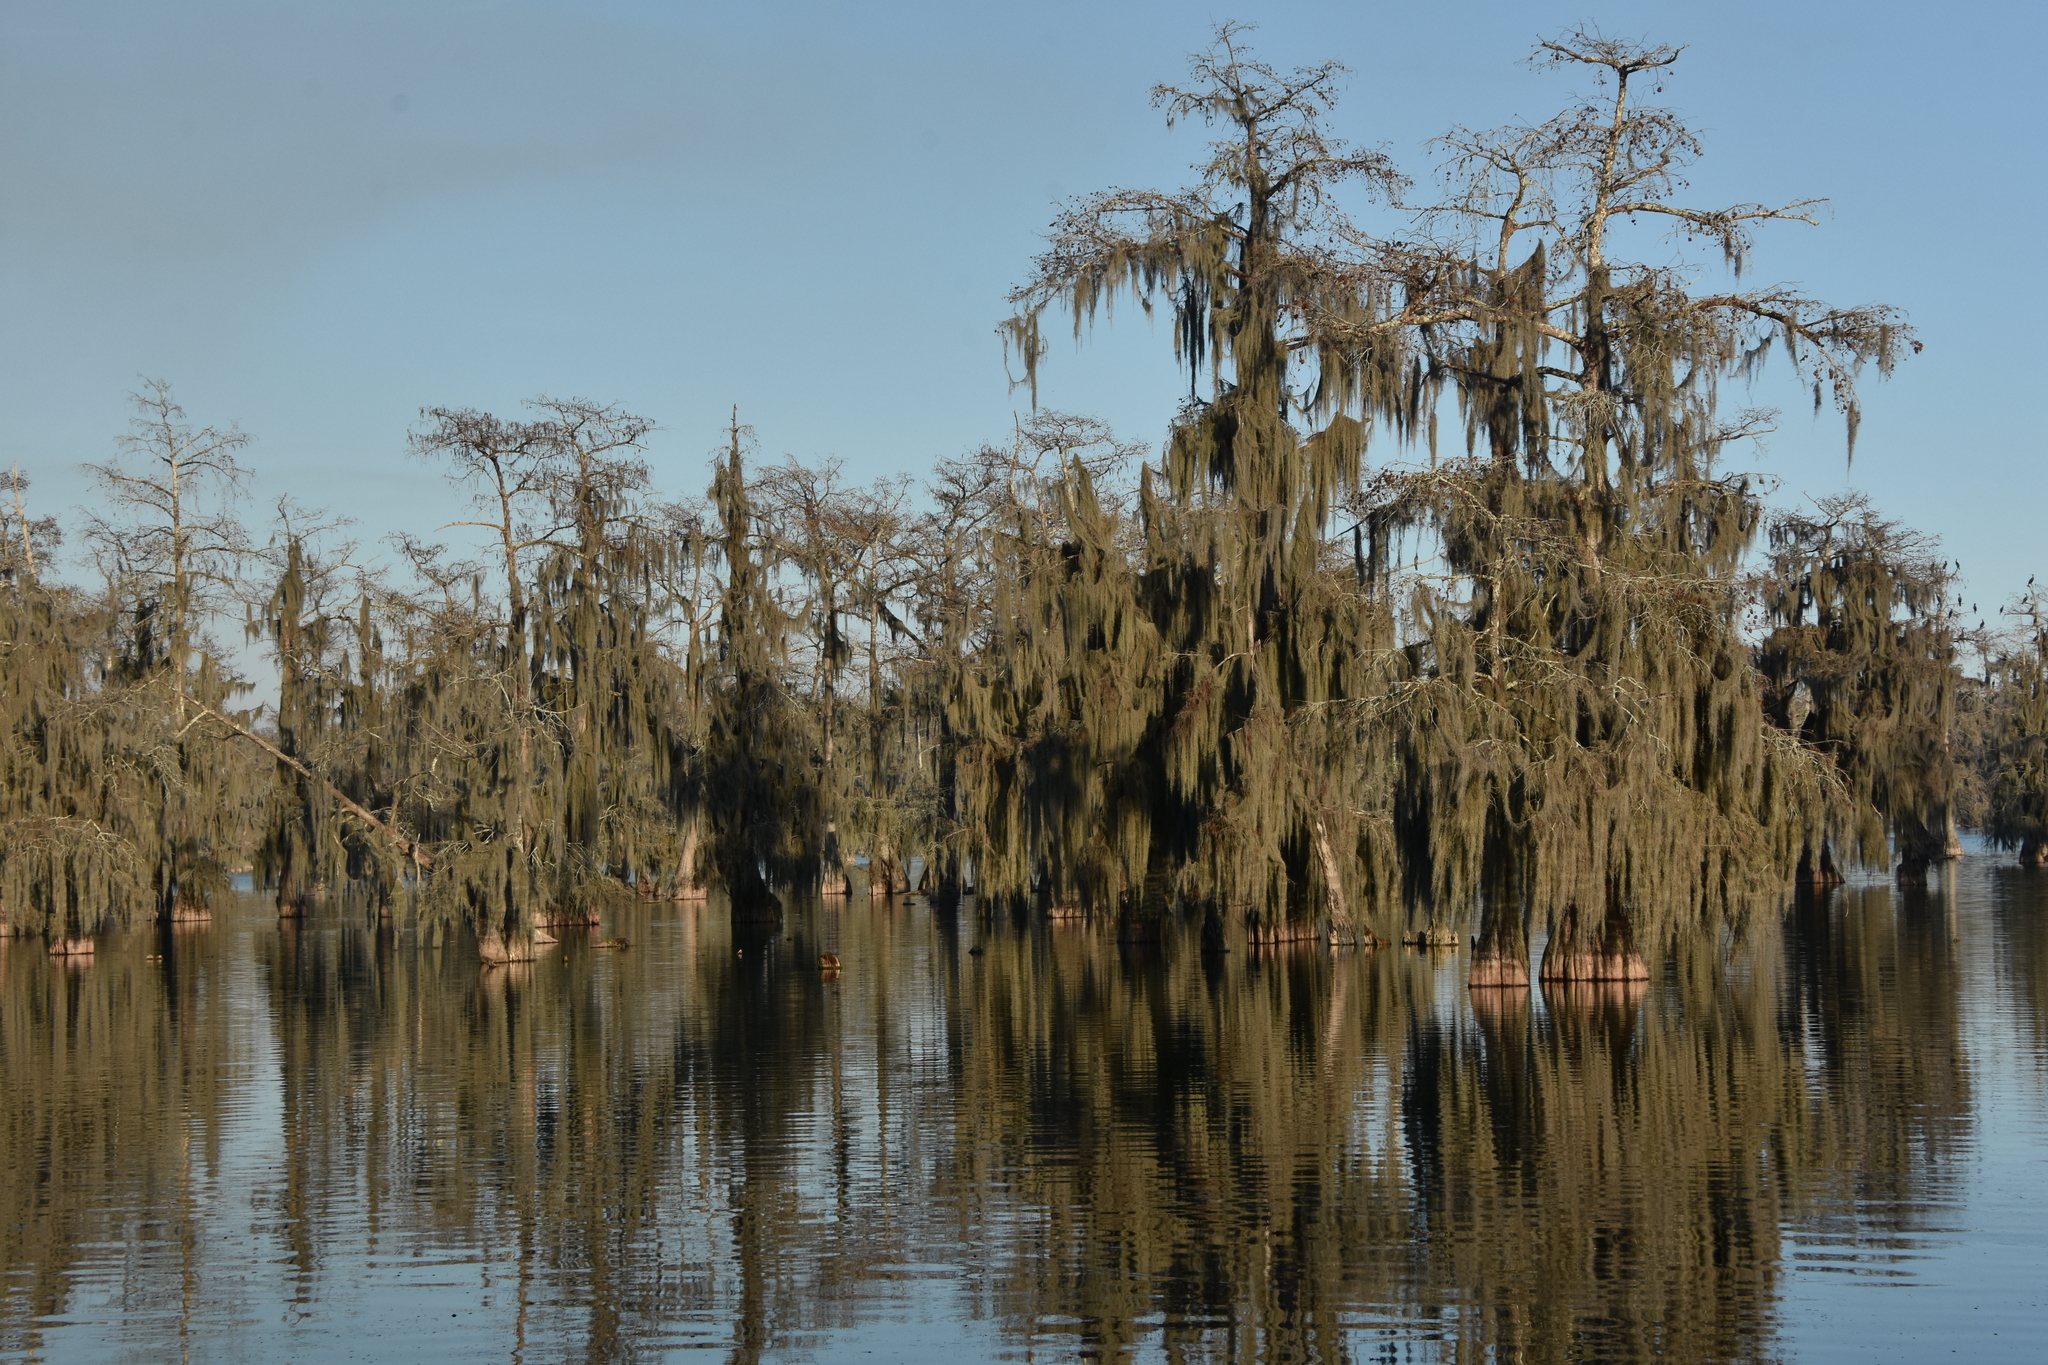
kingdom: Plantae
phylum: Tracheophyta
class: Liliopsida
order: Poales
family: Bromeliaceae
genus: Tillandsia
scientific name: Tillandsia usneoides
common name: Spanish moss
